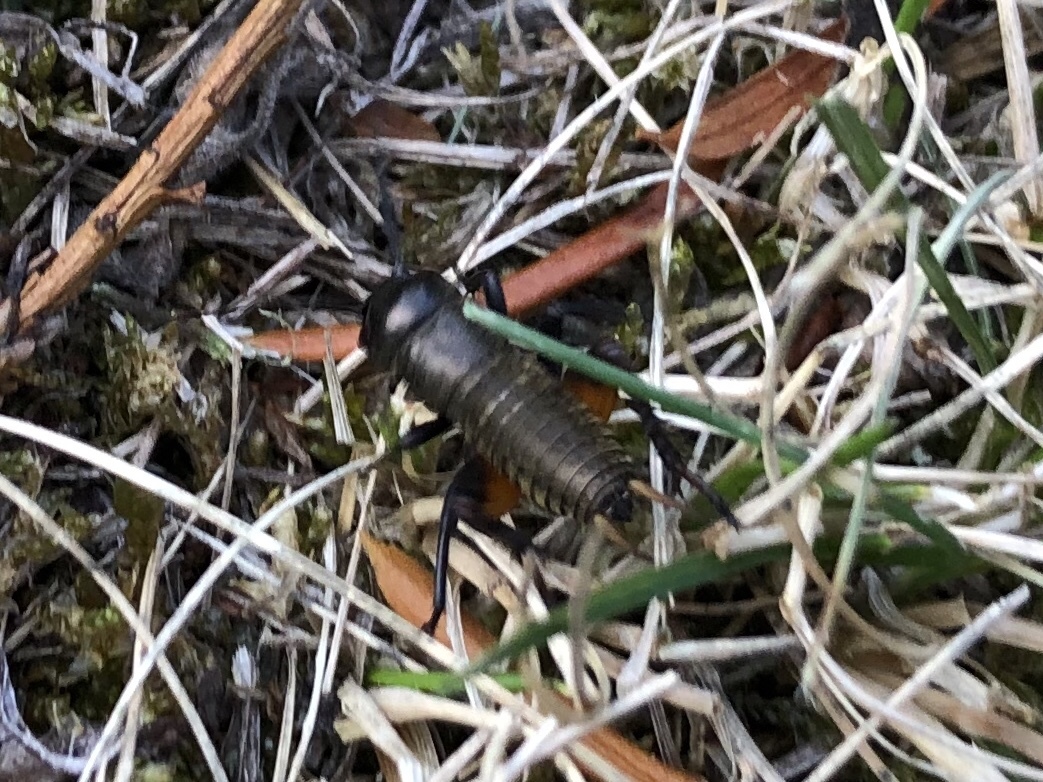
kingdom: Animalia
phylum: Arthropoda
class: Insecta
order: Orthoptera
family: Gryllidae
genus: Gryllus
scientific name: Gryllus campestris
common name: Field cricket
